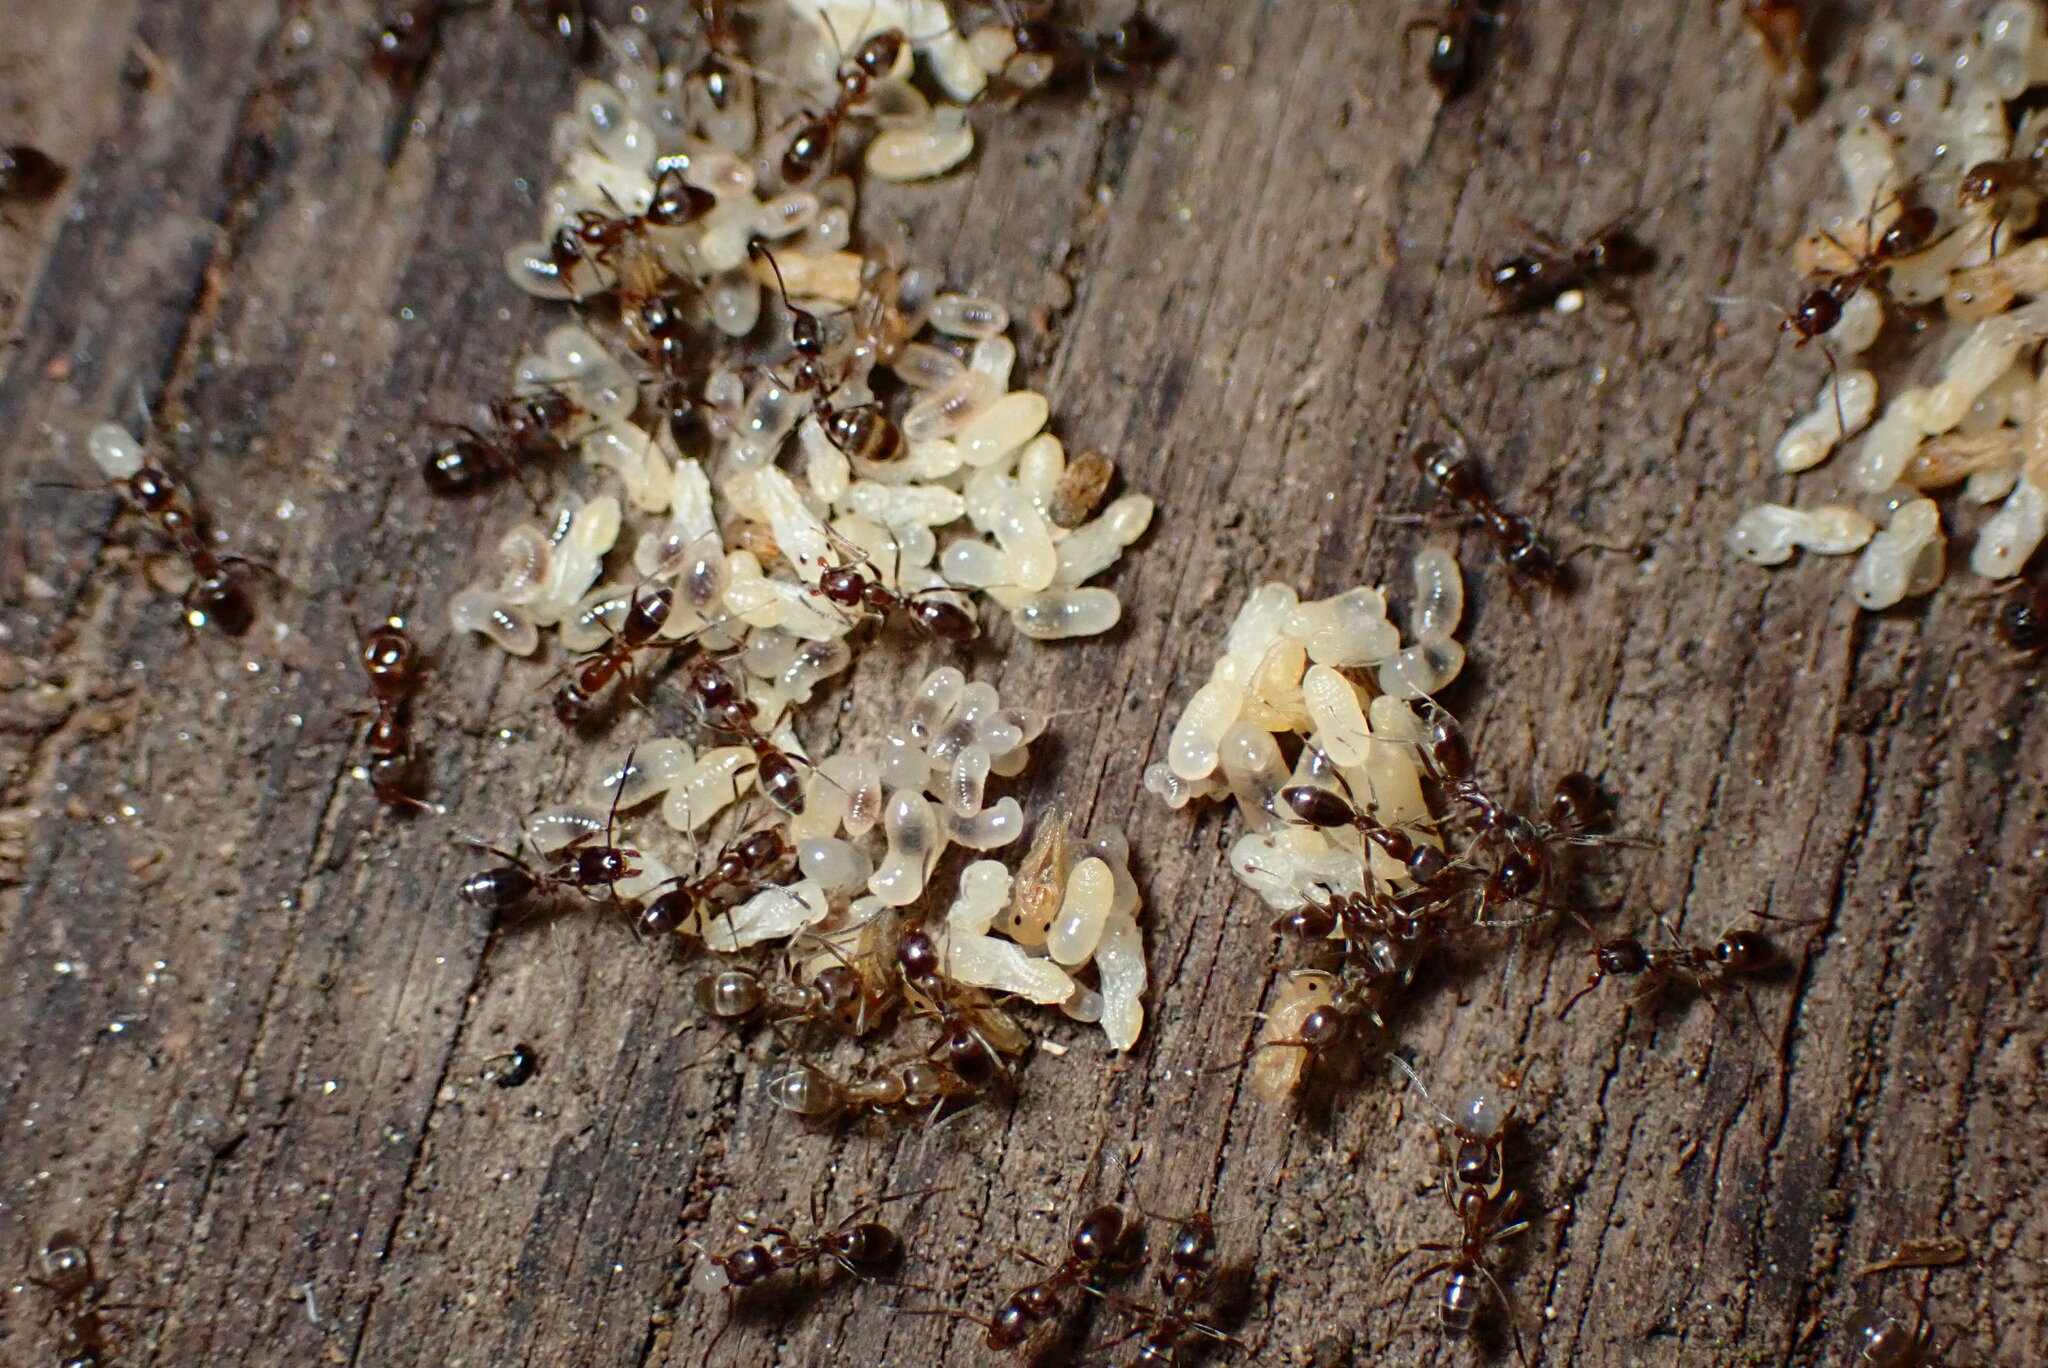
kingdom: Animalia
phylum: Arthropoda
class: Insecta
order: Hymenoptera
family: Formicidae
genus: Linepithema
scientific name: Linepithema humile
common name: Argentine ant
